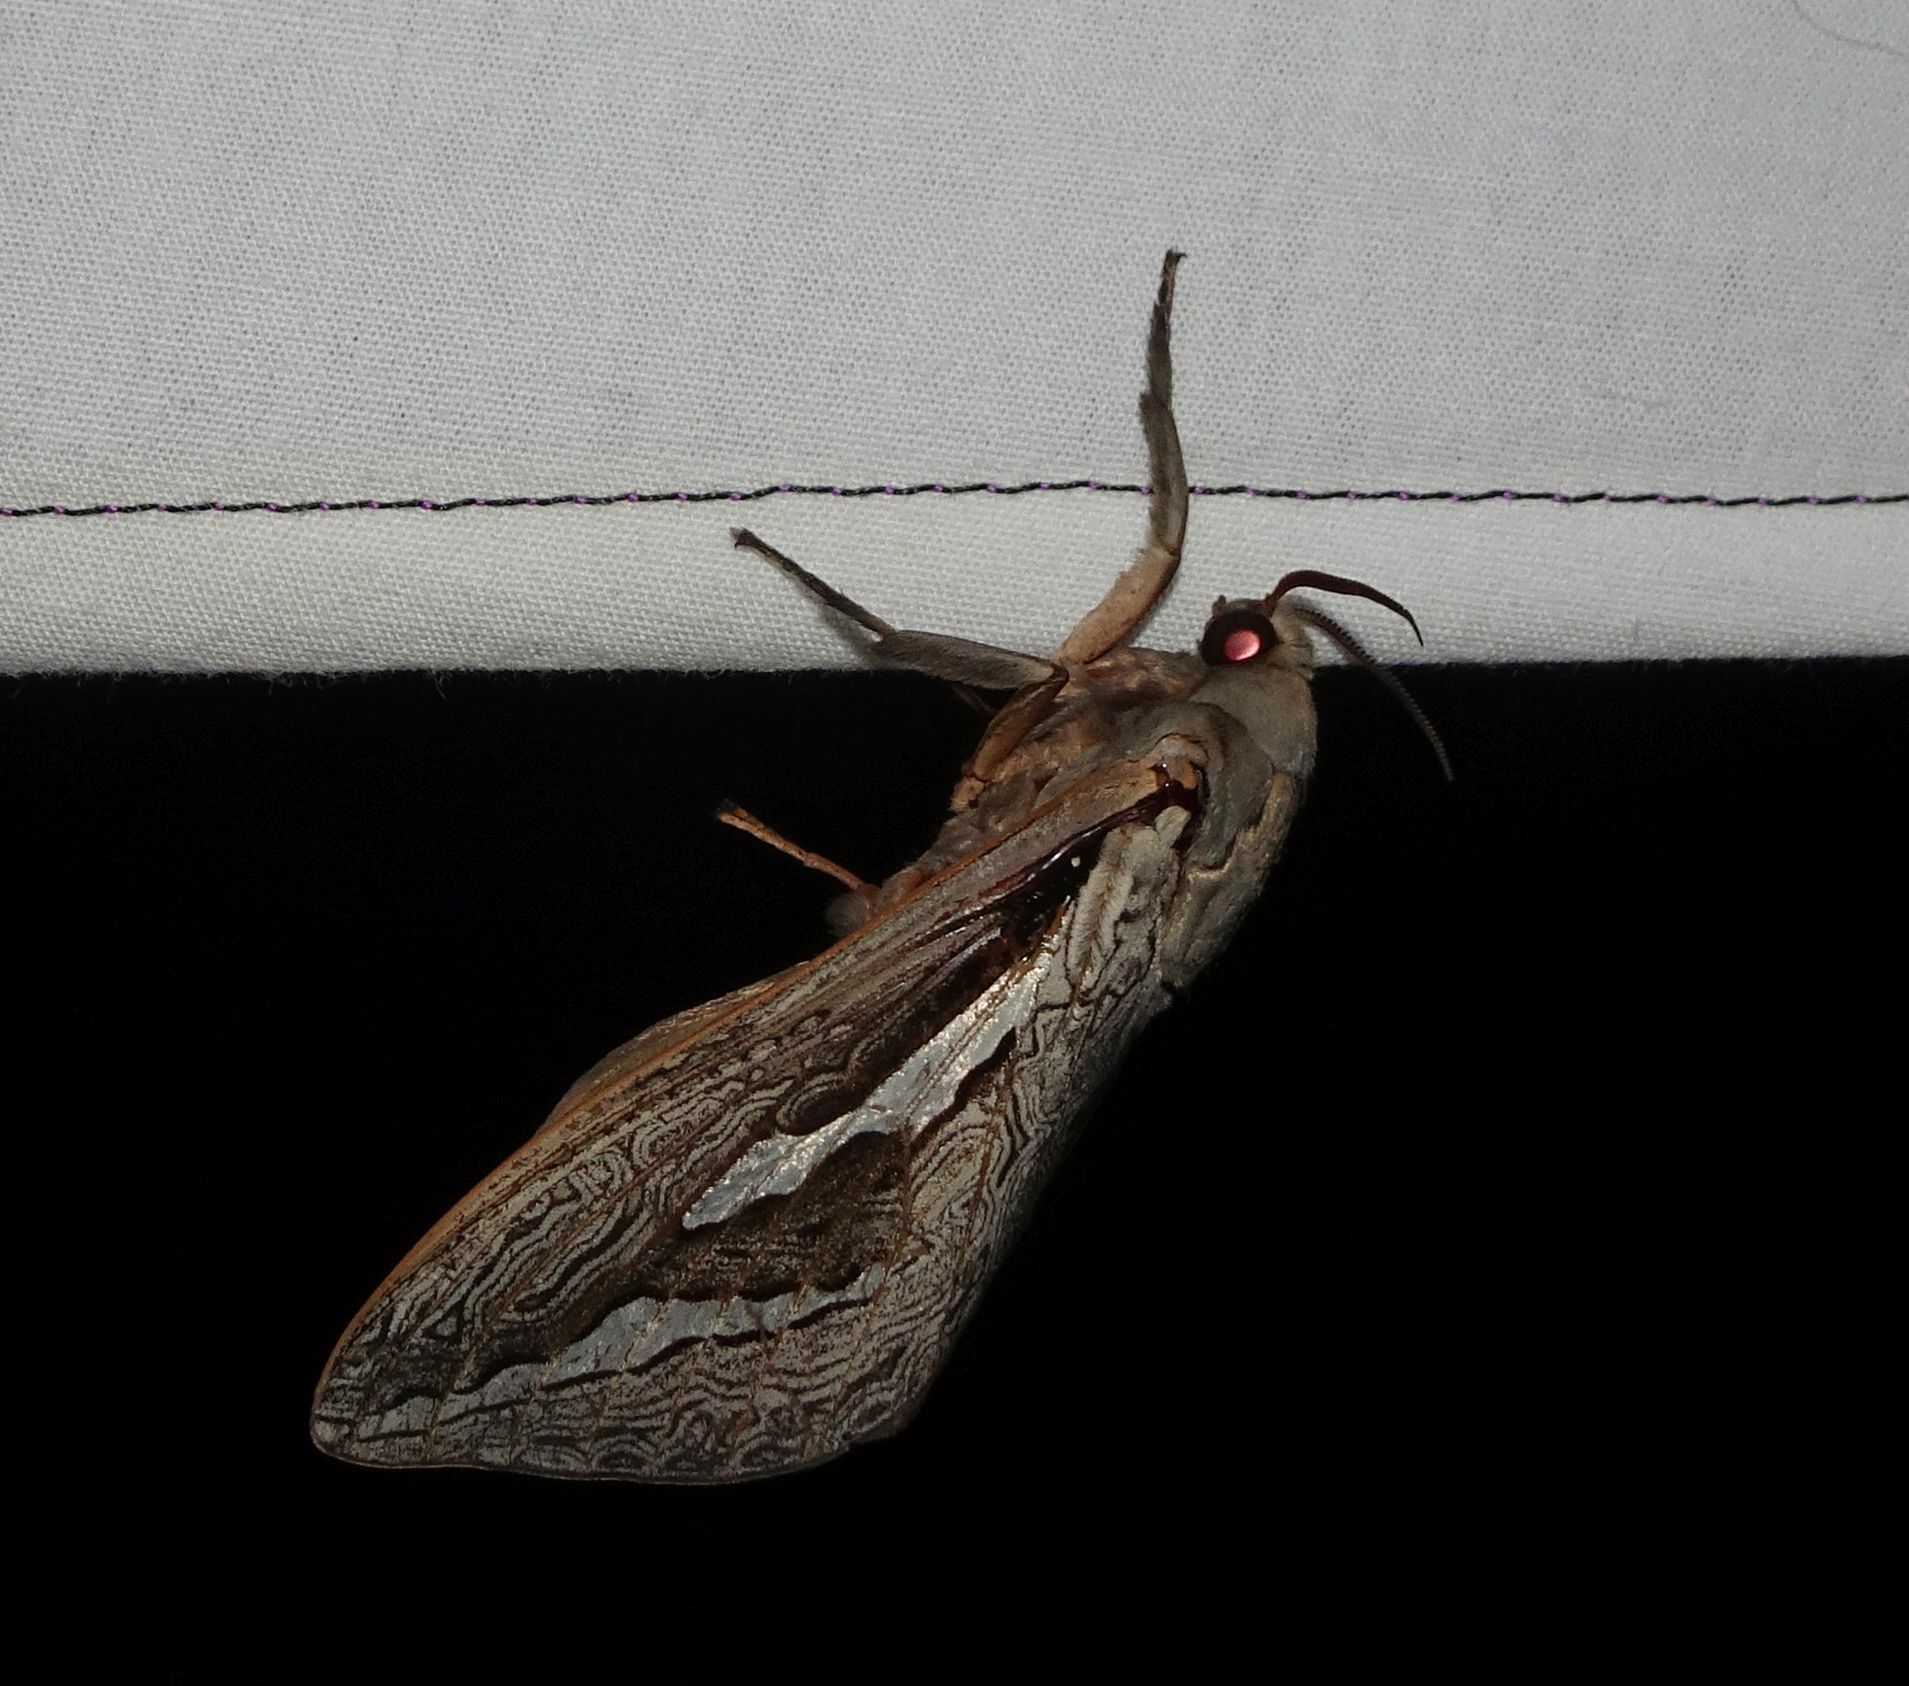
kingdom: Animalia
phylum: Arthropoda
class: Insecta
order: Lepidoptera
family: Hepialidae
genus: Abantiades
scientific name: Abantiades labyrinthicus
